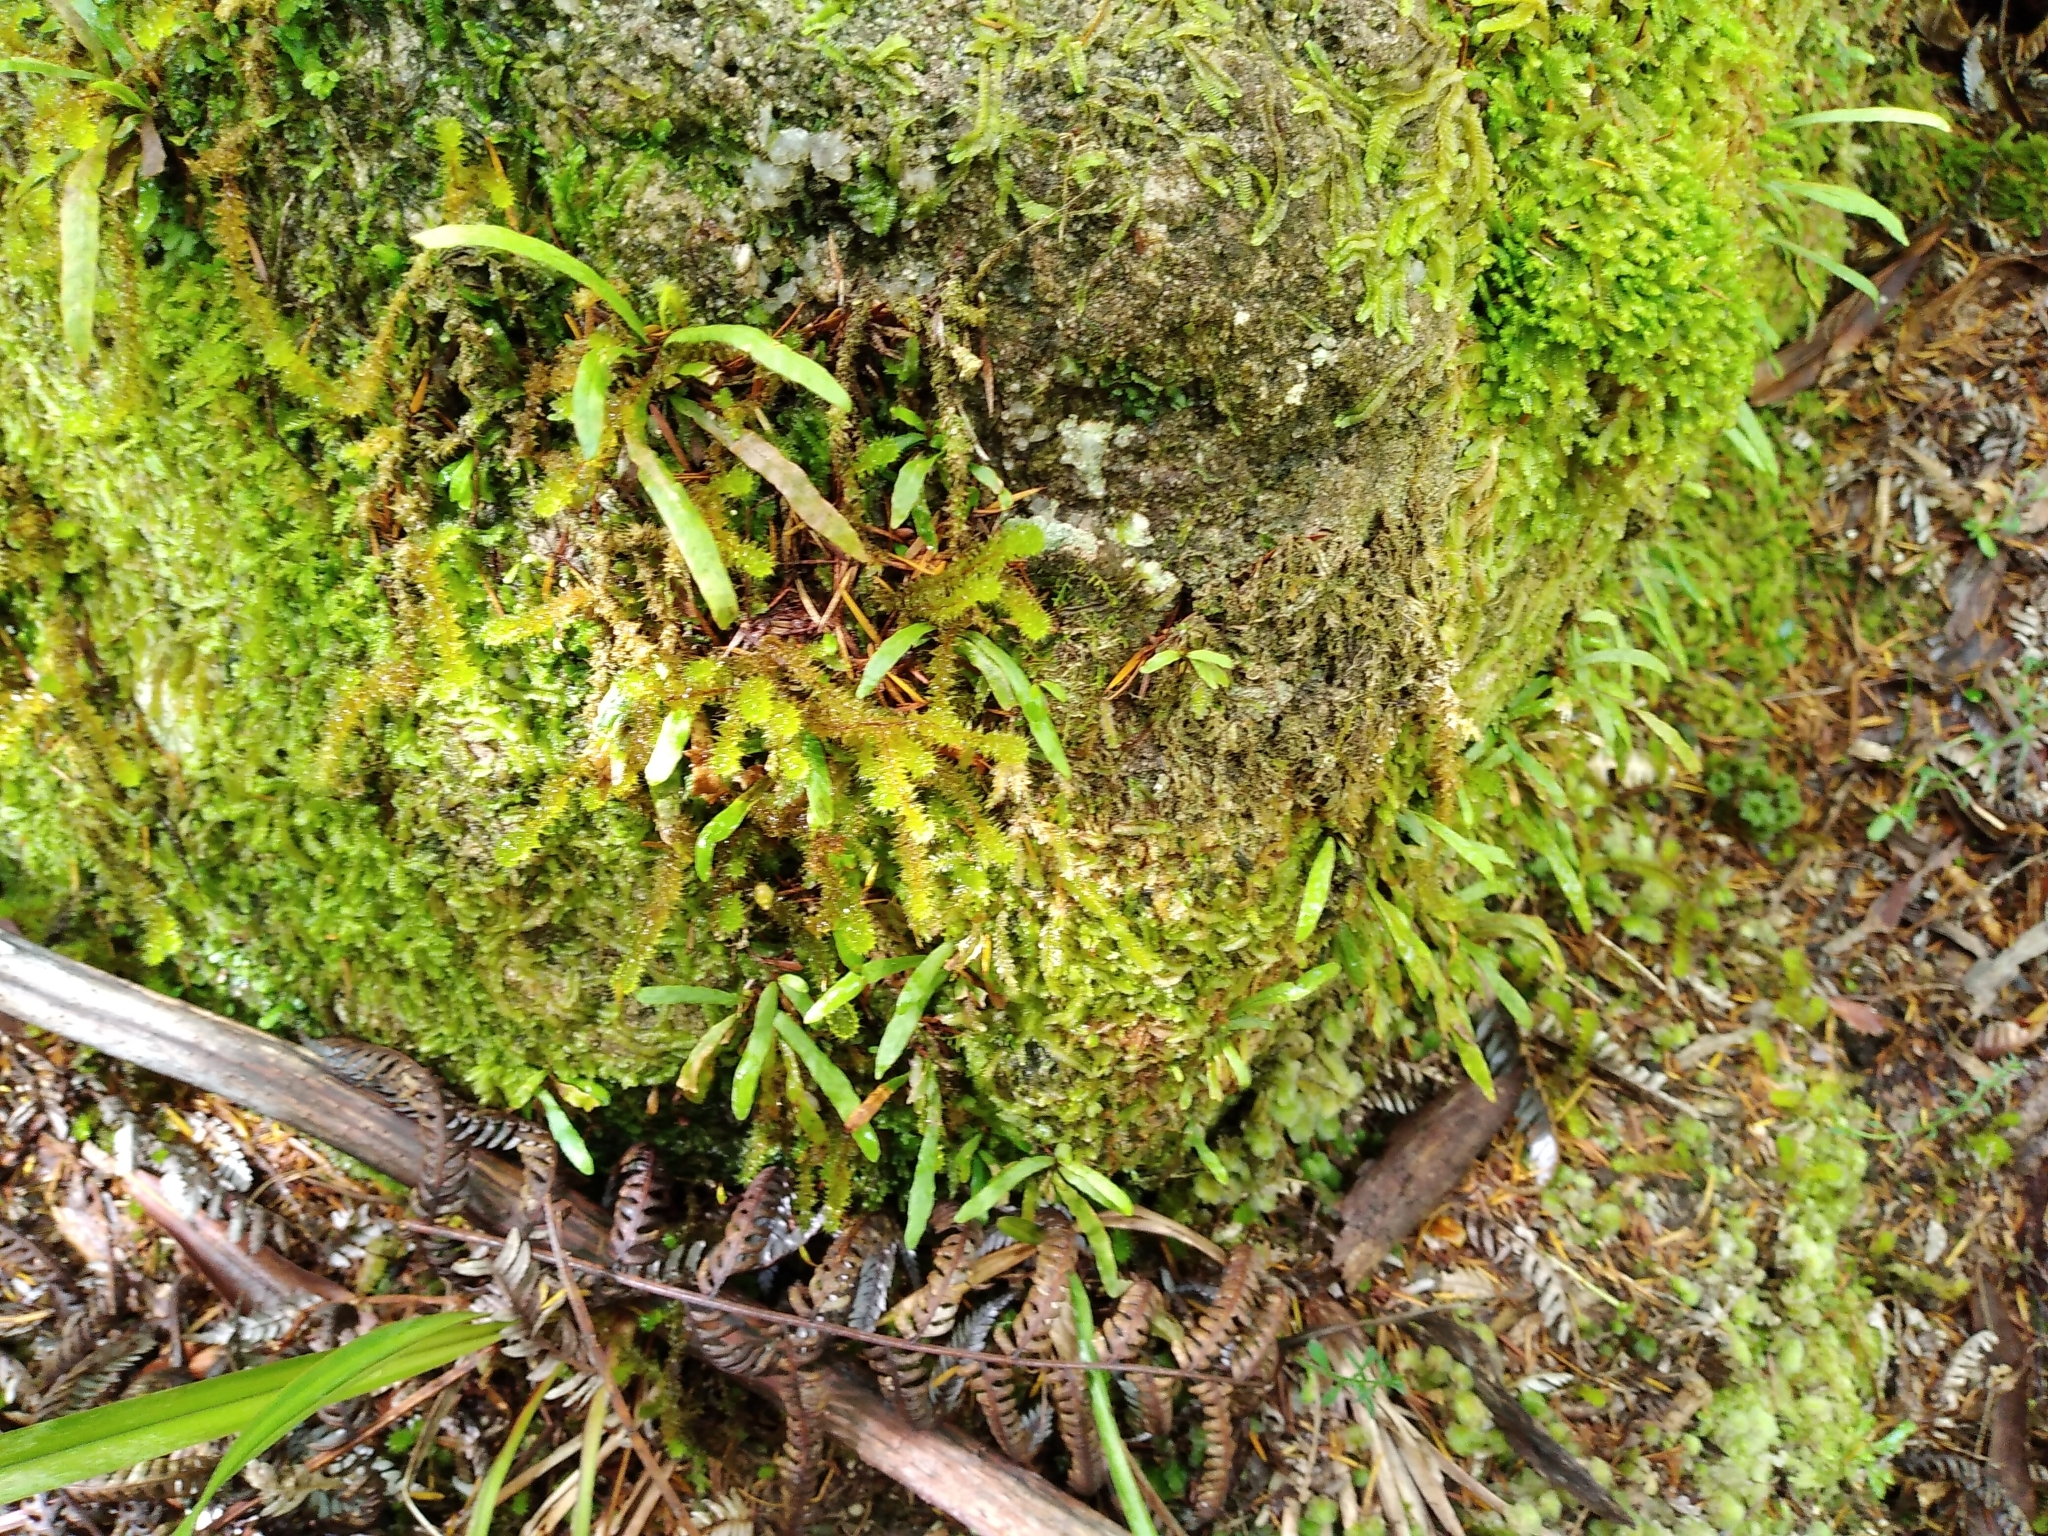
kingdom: Plantae
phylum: Tracheophyta
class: Polypodiopsida
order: Polypodiales
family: Polypodiaceae
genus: Notogrammitis
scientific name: Notogrammitis ciliata
